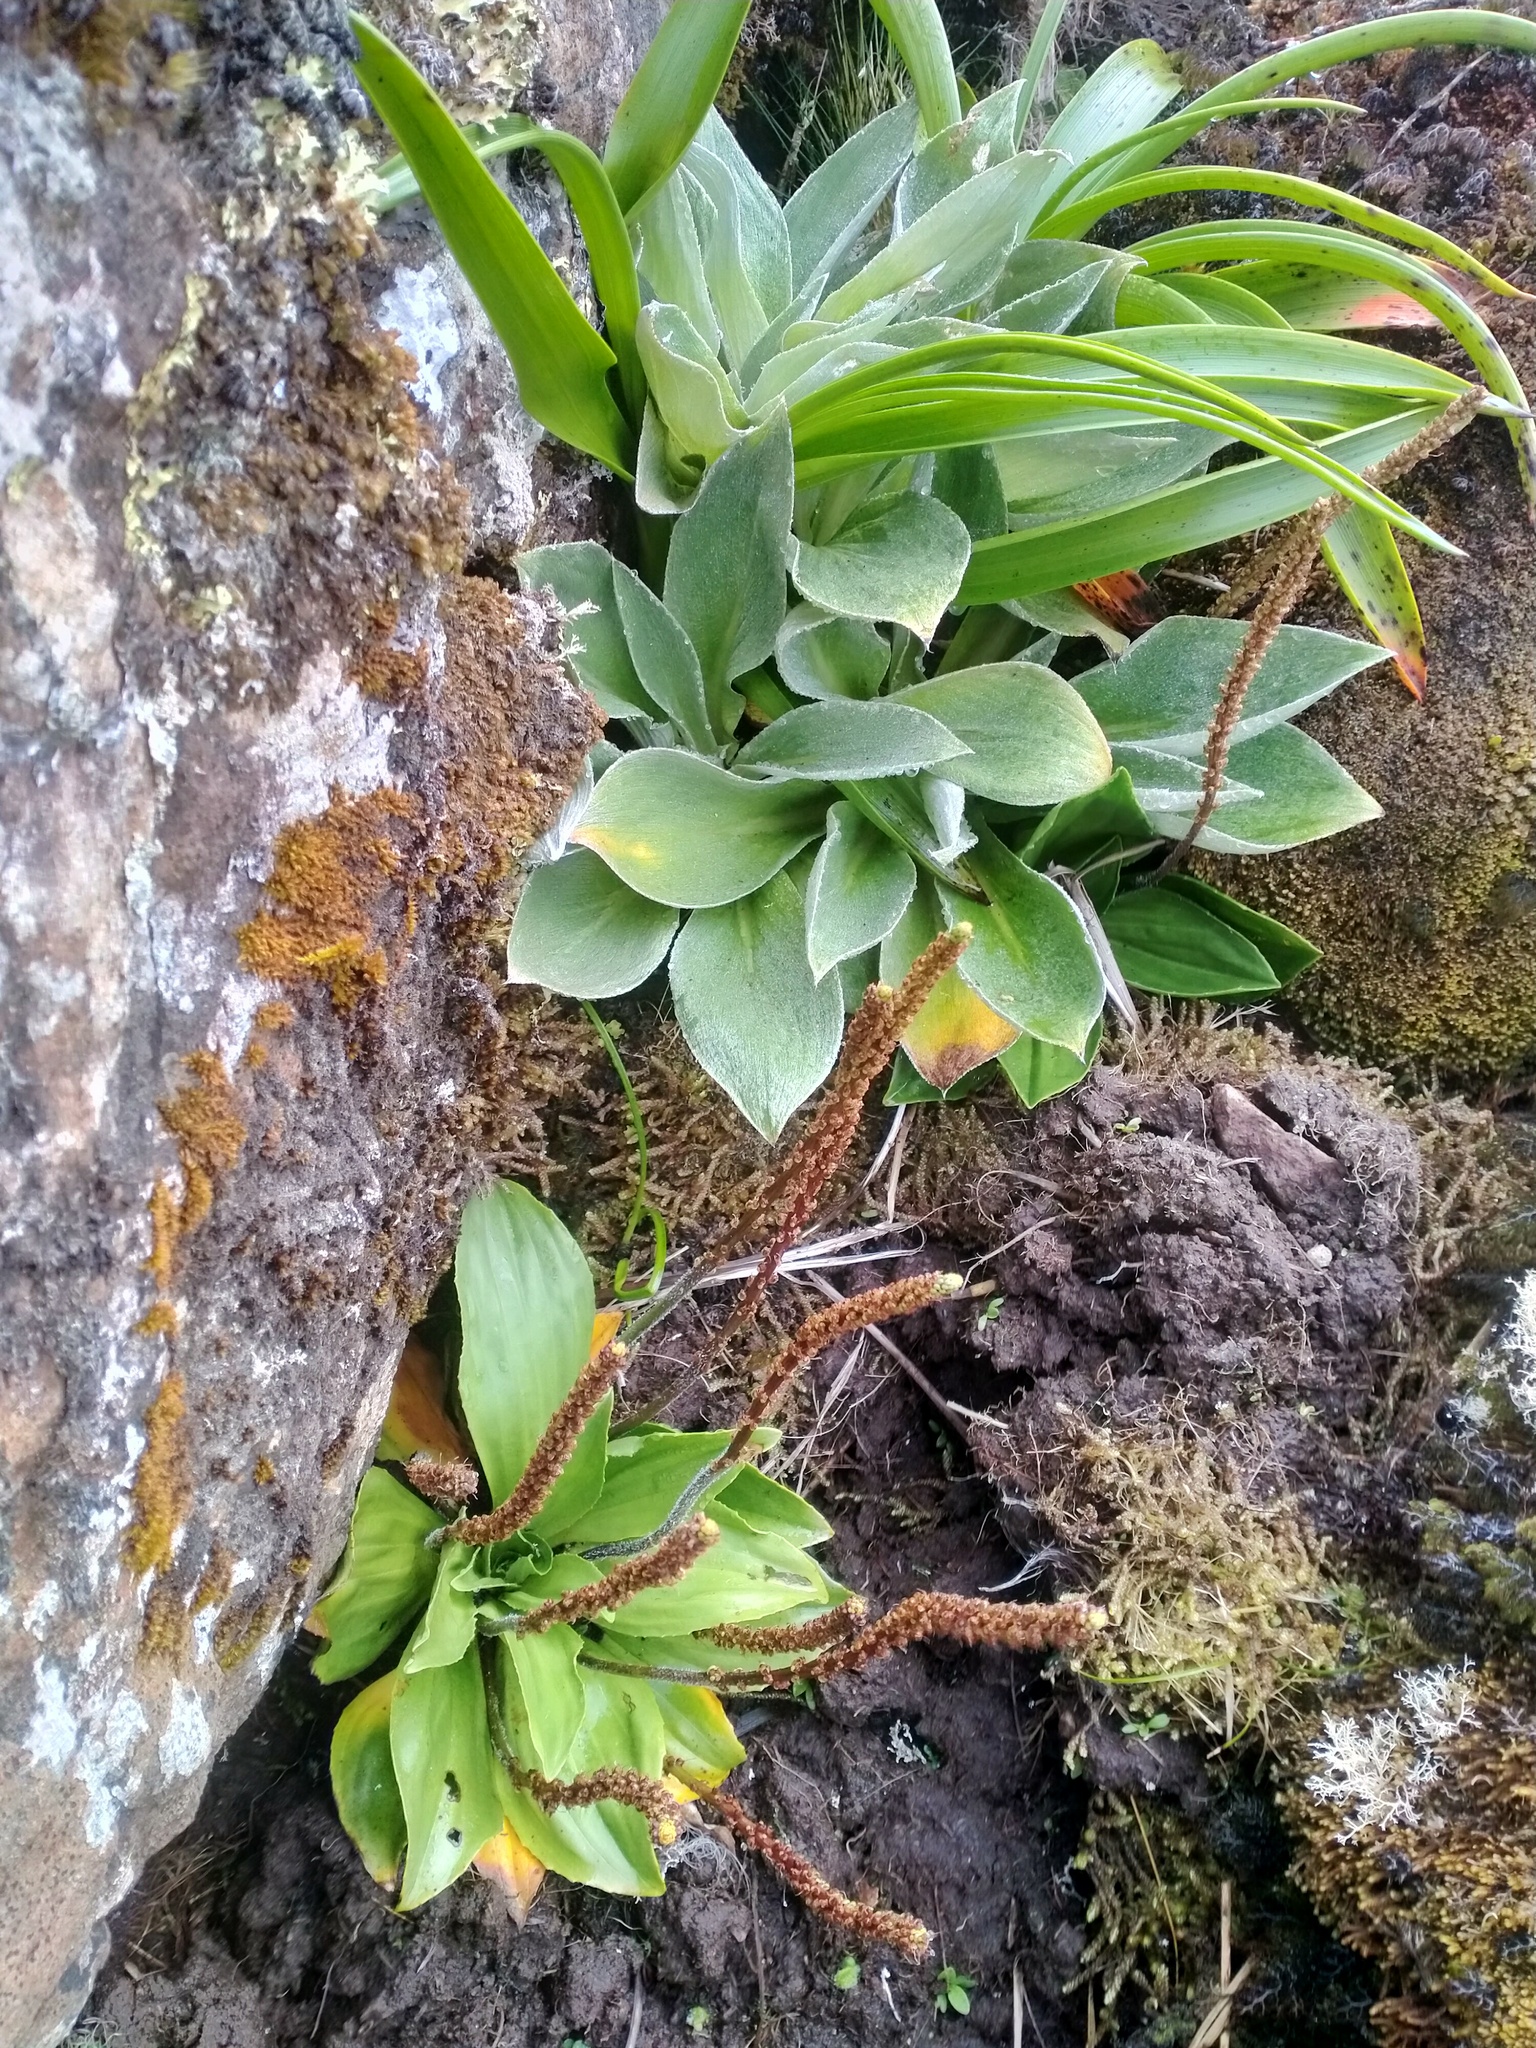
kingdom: Plantae
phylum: Tracheophyta
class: Magnoliopsida
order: Asterales
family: Asteraceae
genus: Pleurophyllum
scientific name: Pleurophyllum speciosum
